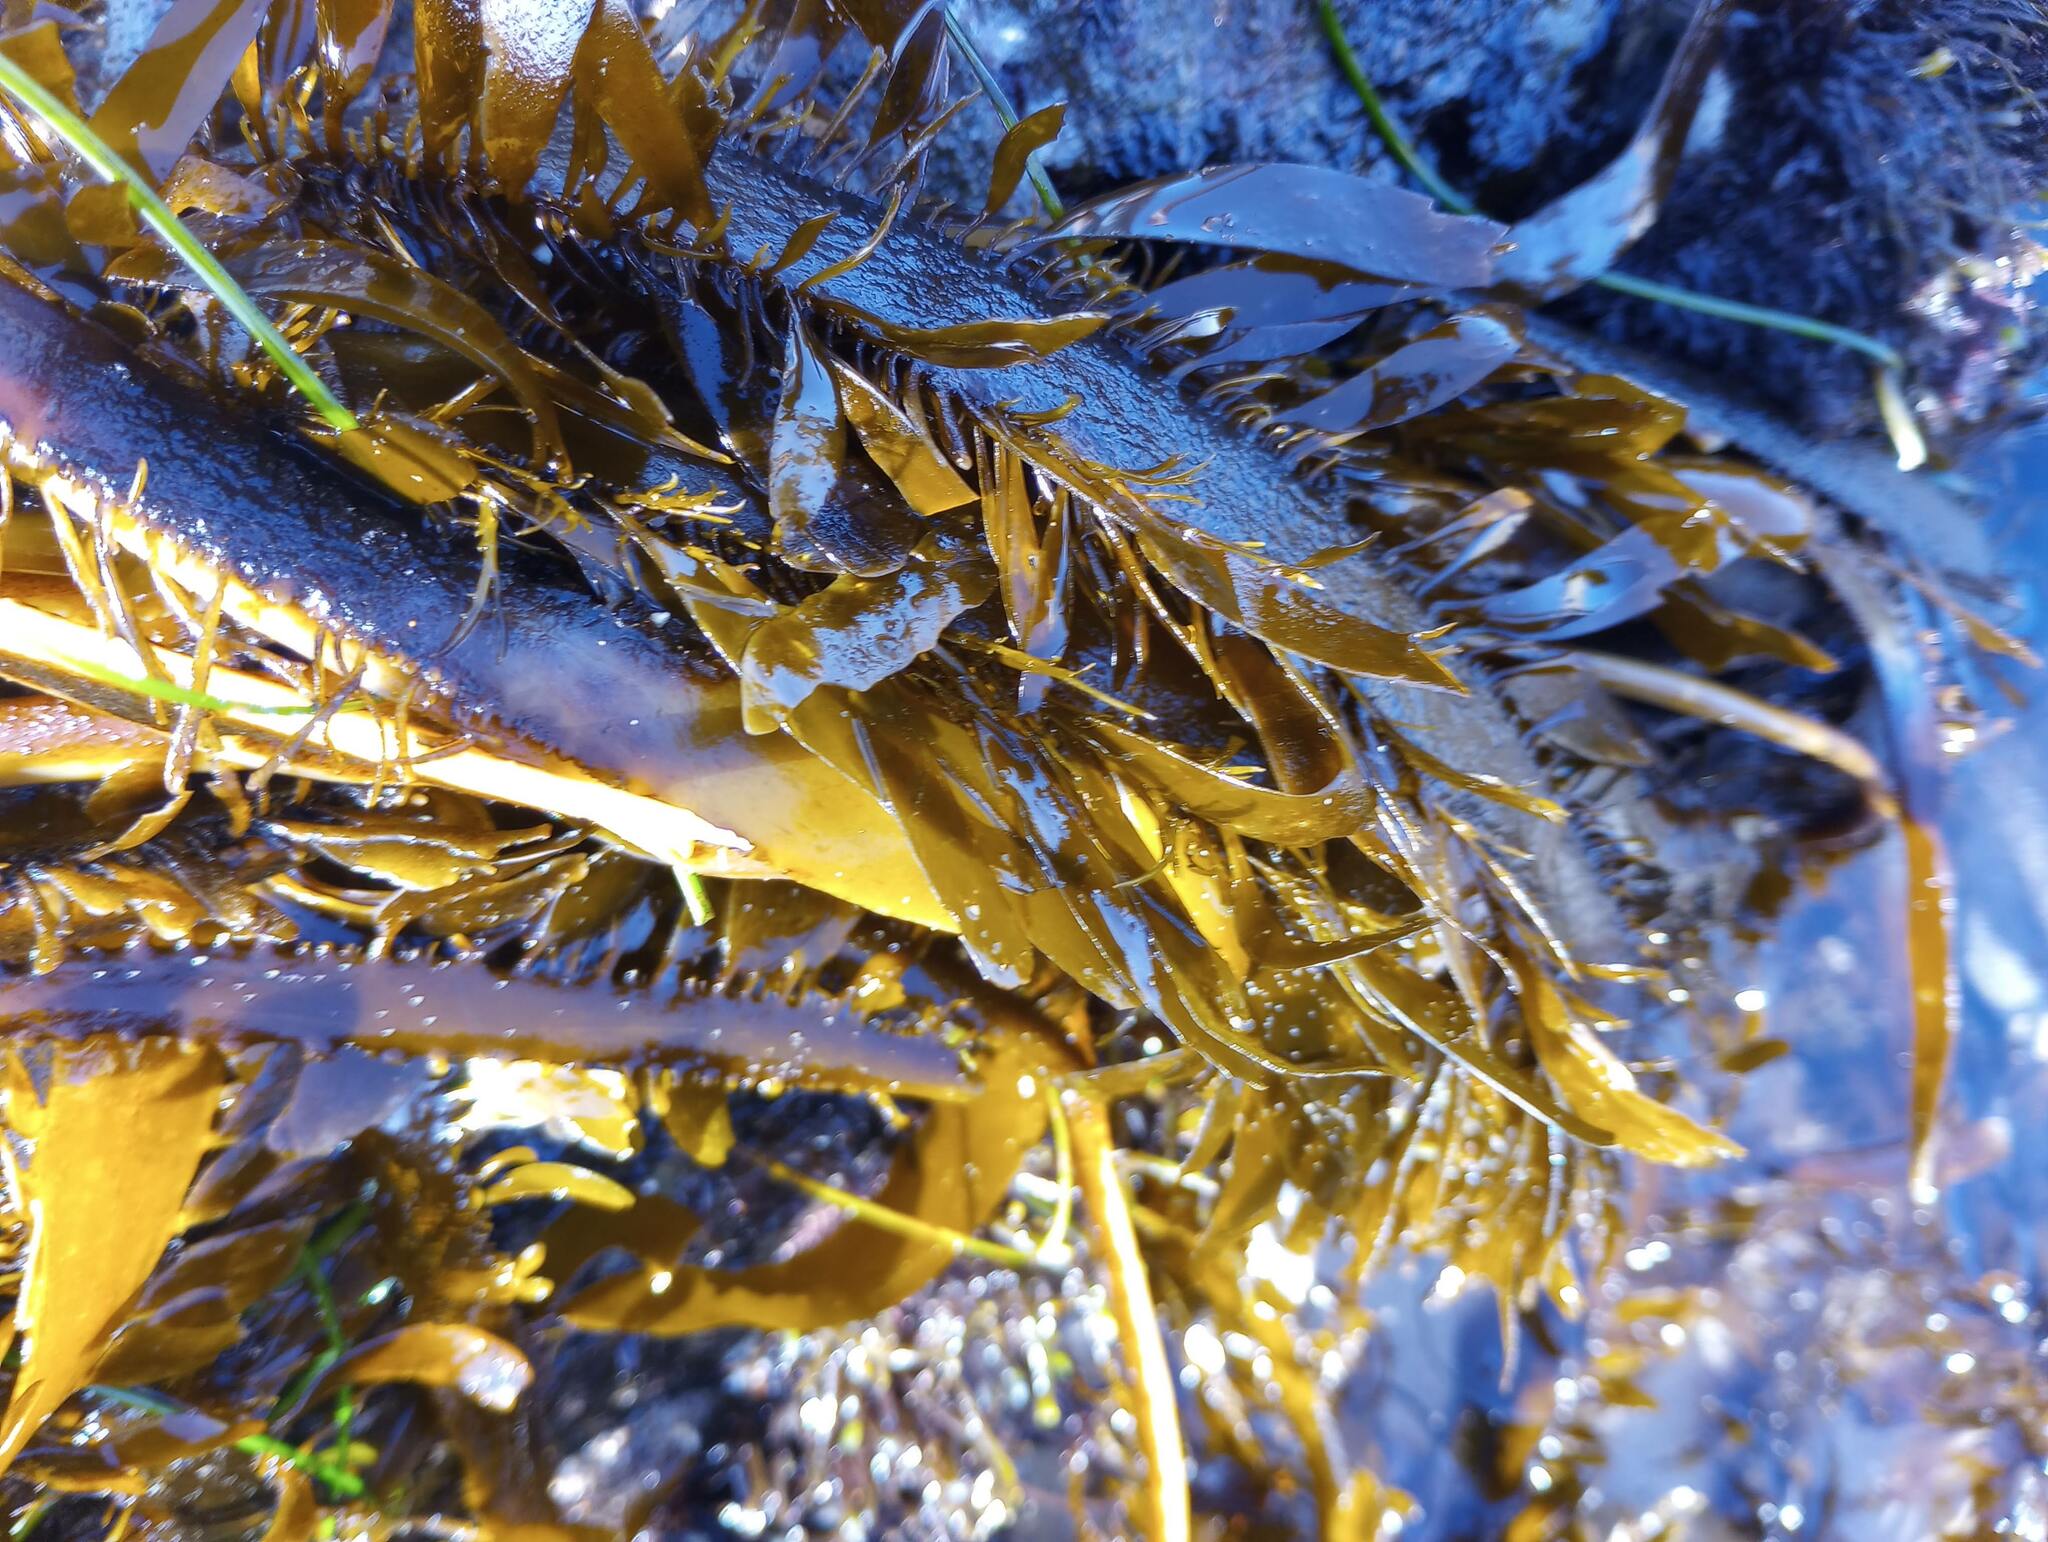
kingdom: Chromista
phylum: Ochrophyta
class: Phaeophyceae
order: Laminariales
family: Lessoniaceae
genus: Egregia
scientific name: Egregia menziesii
